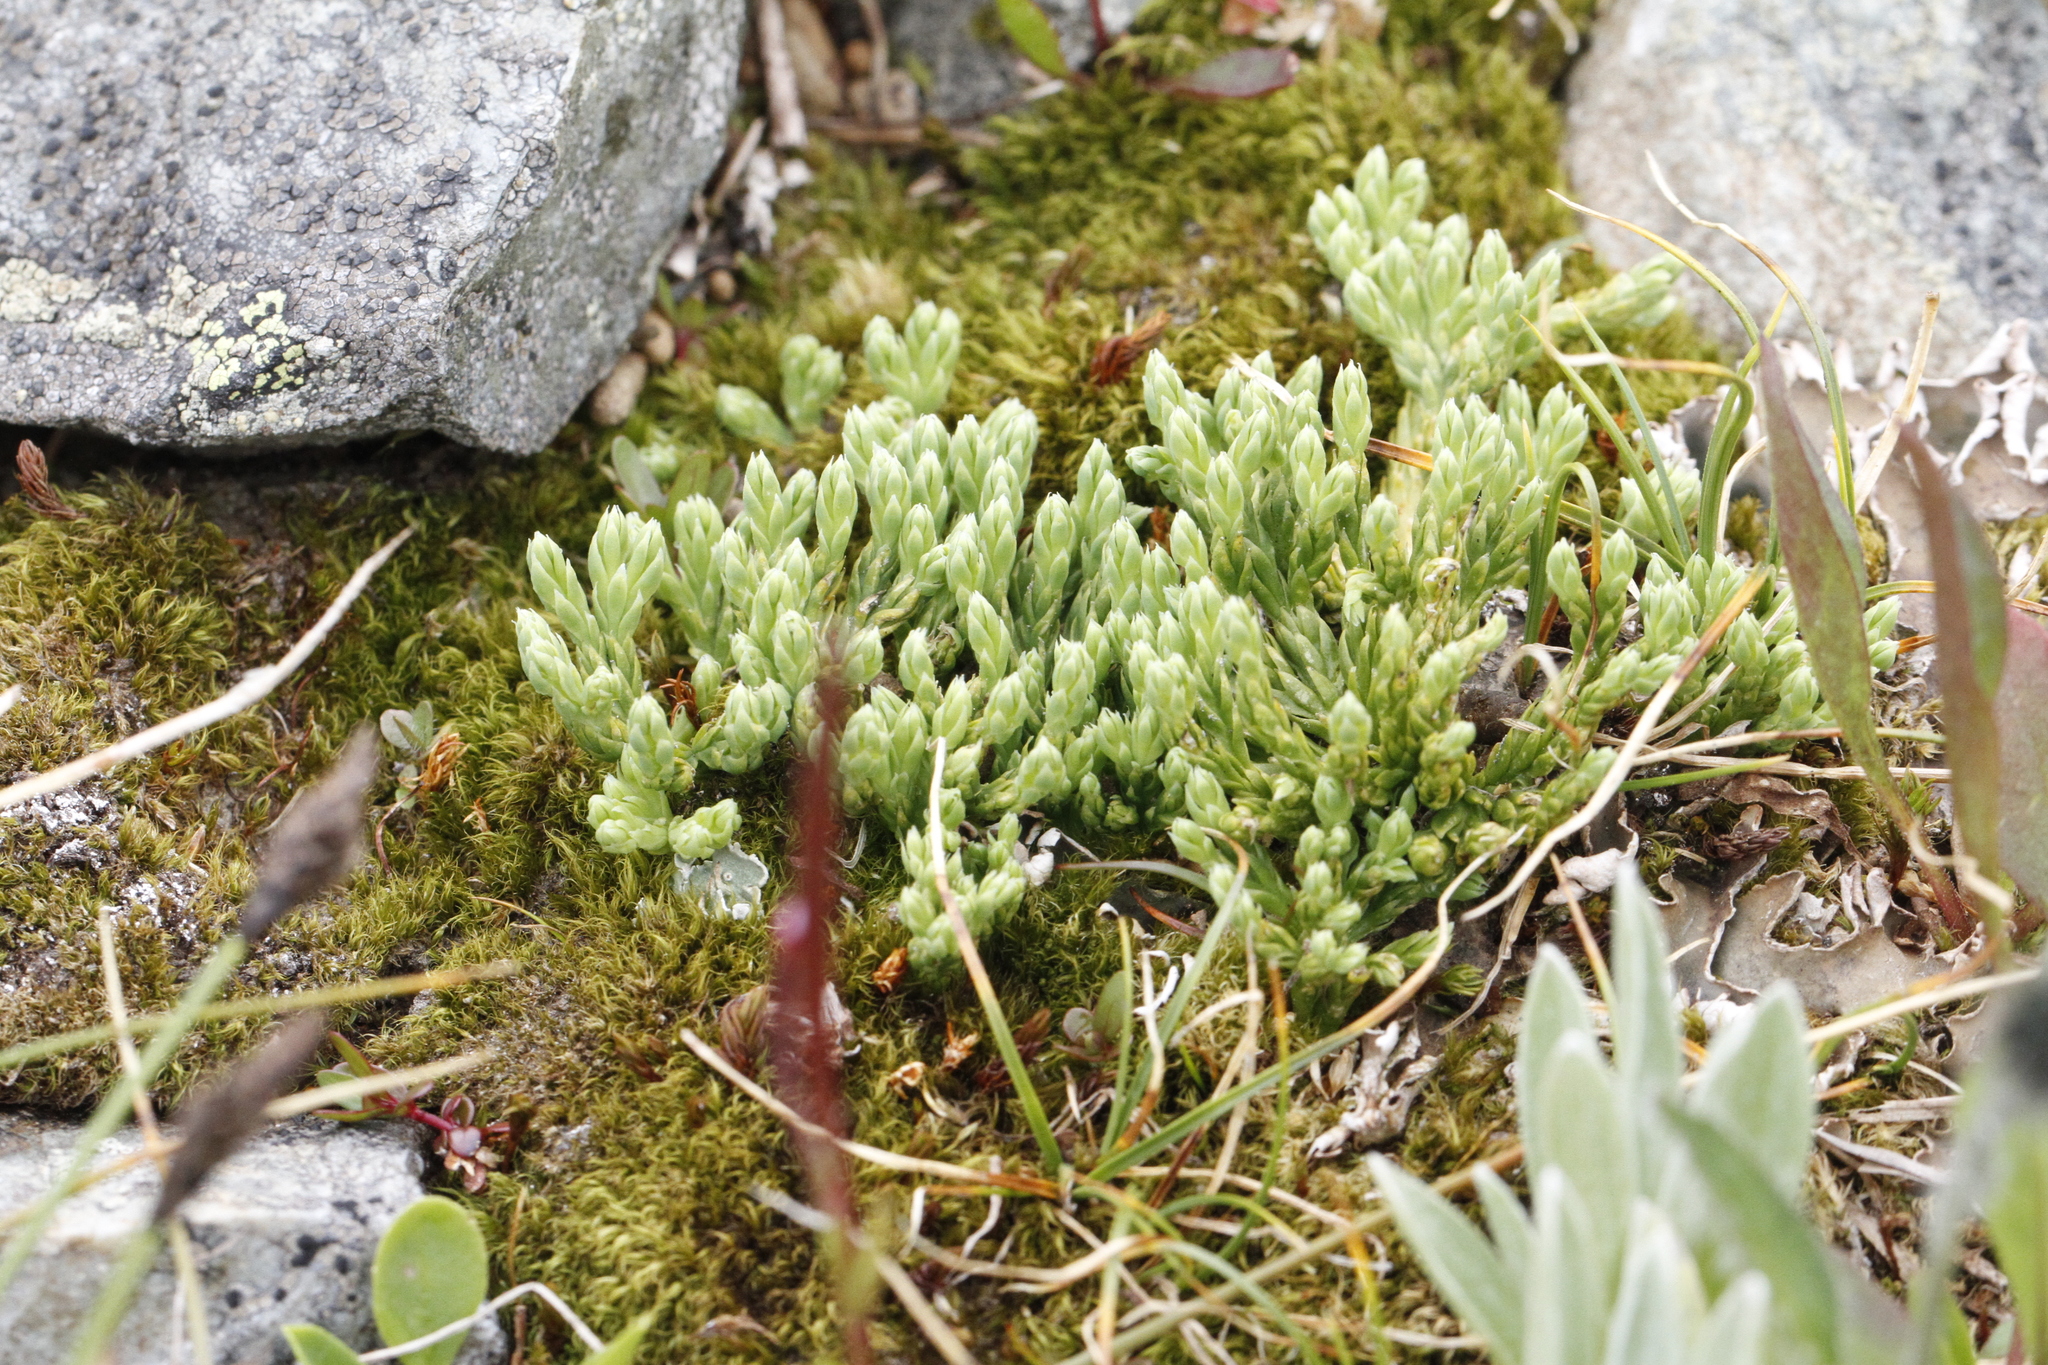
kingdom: Plantae
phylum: Tracheophyta
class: Lycopodiopsida
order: Lycopodiales
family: Lycopodiaceae
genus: Diphasiastrum
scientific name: Diphasiastrum alpinum
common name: Alpine clubmoss
